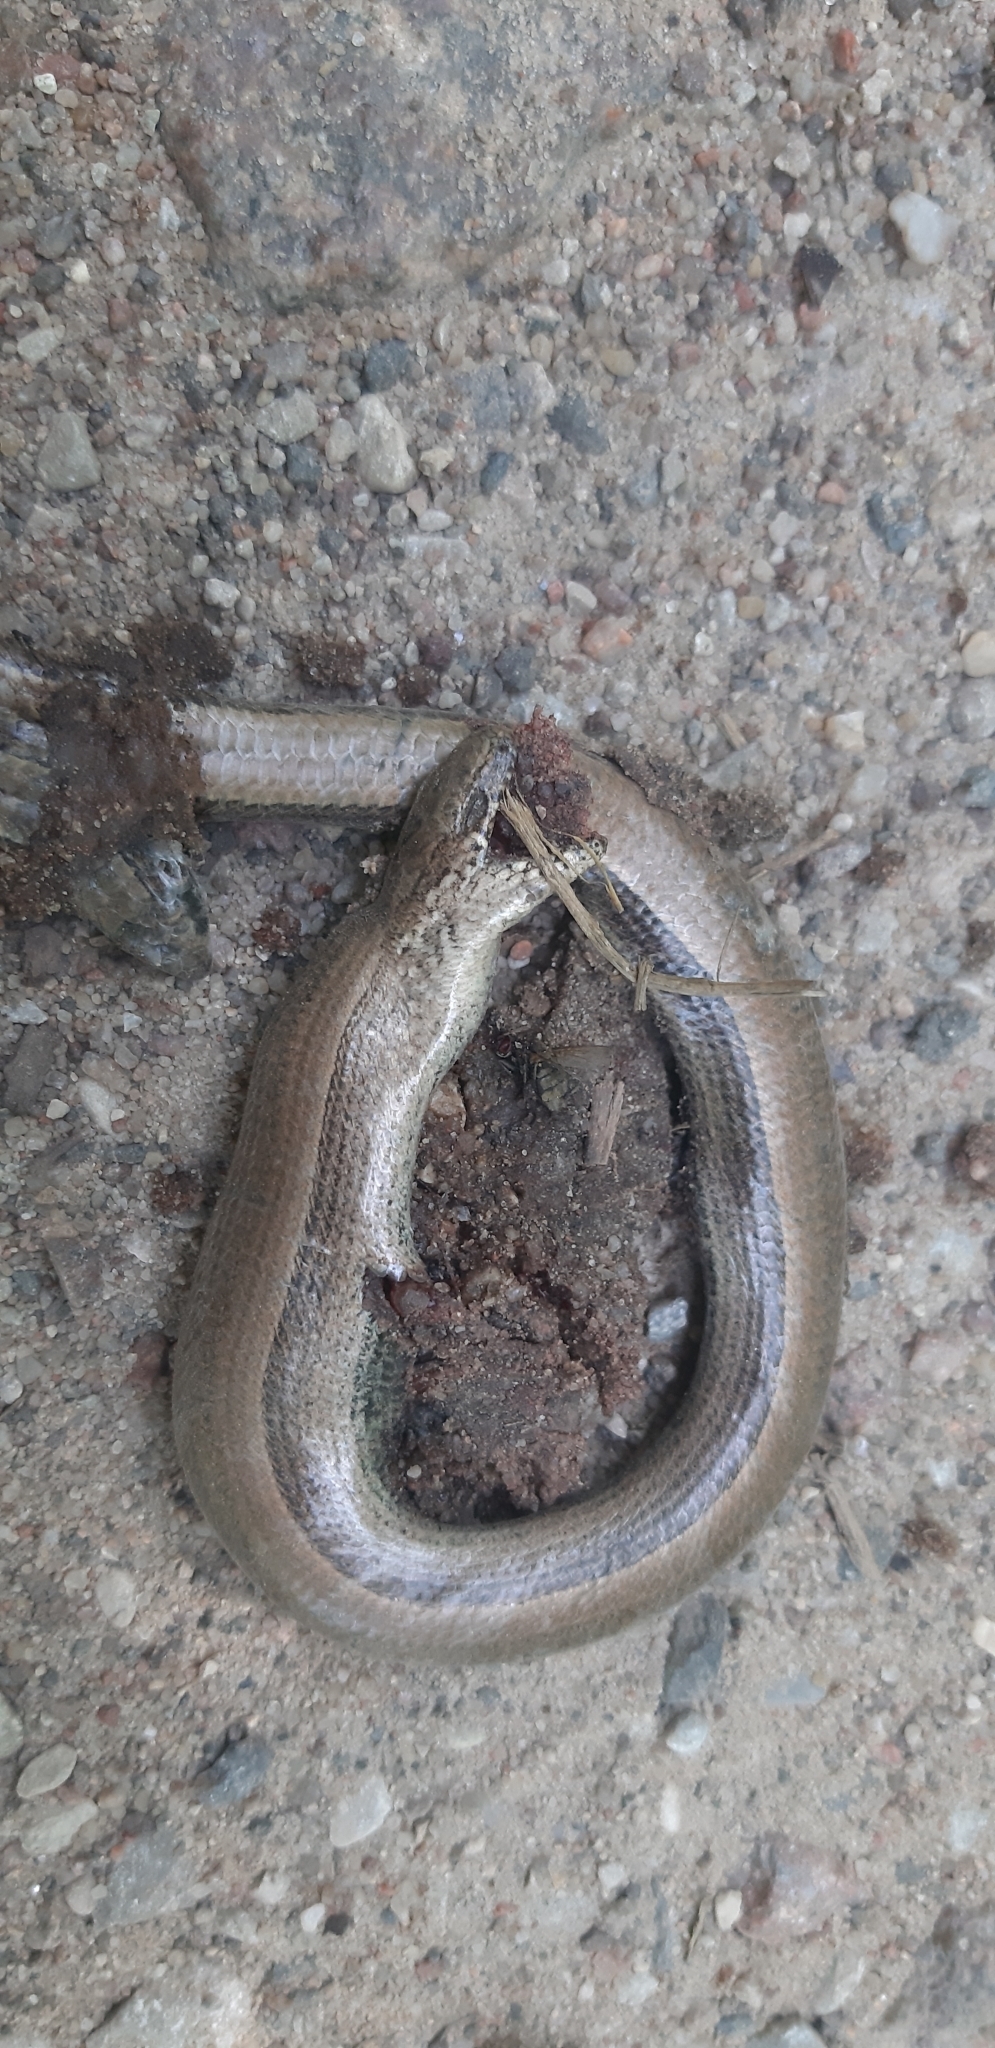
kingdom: Animalia
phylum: Chordata
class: Squamata
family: Anguidae
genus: Anguis
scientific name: Anguis colchica
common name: Slow worm
